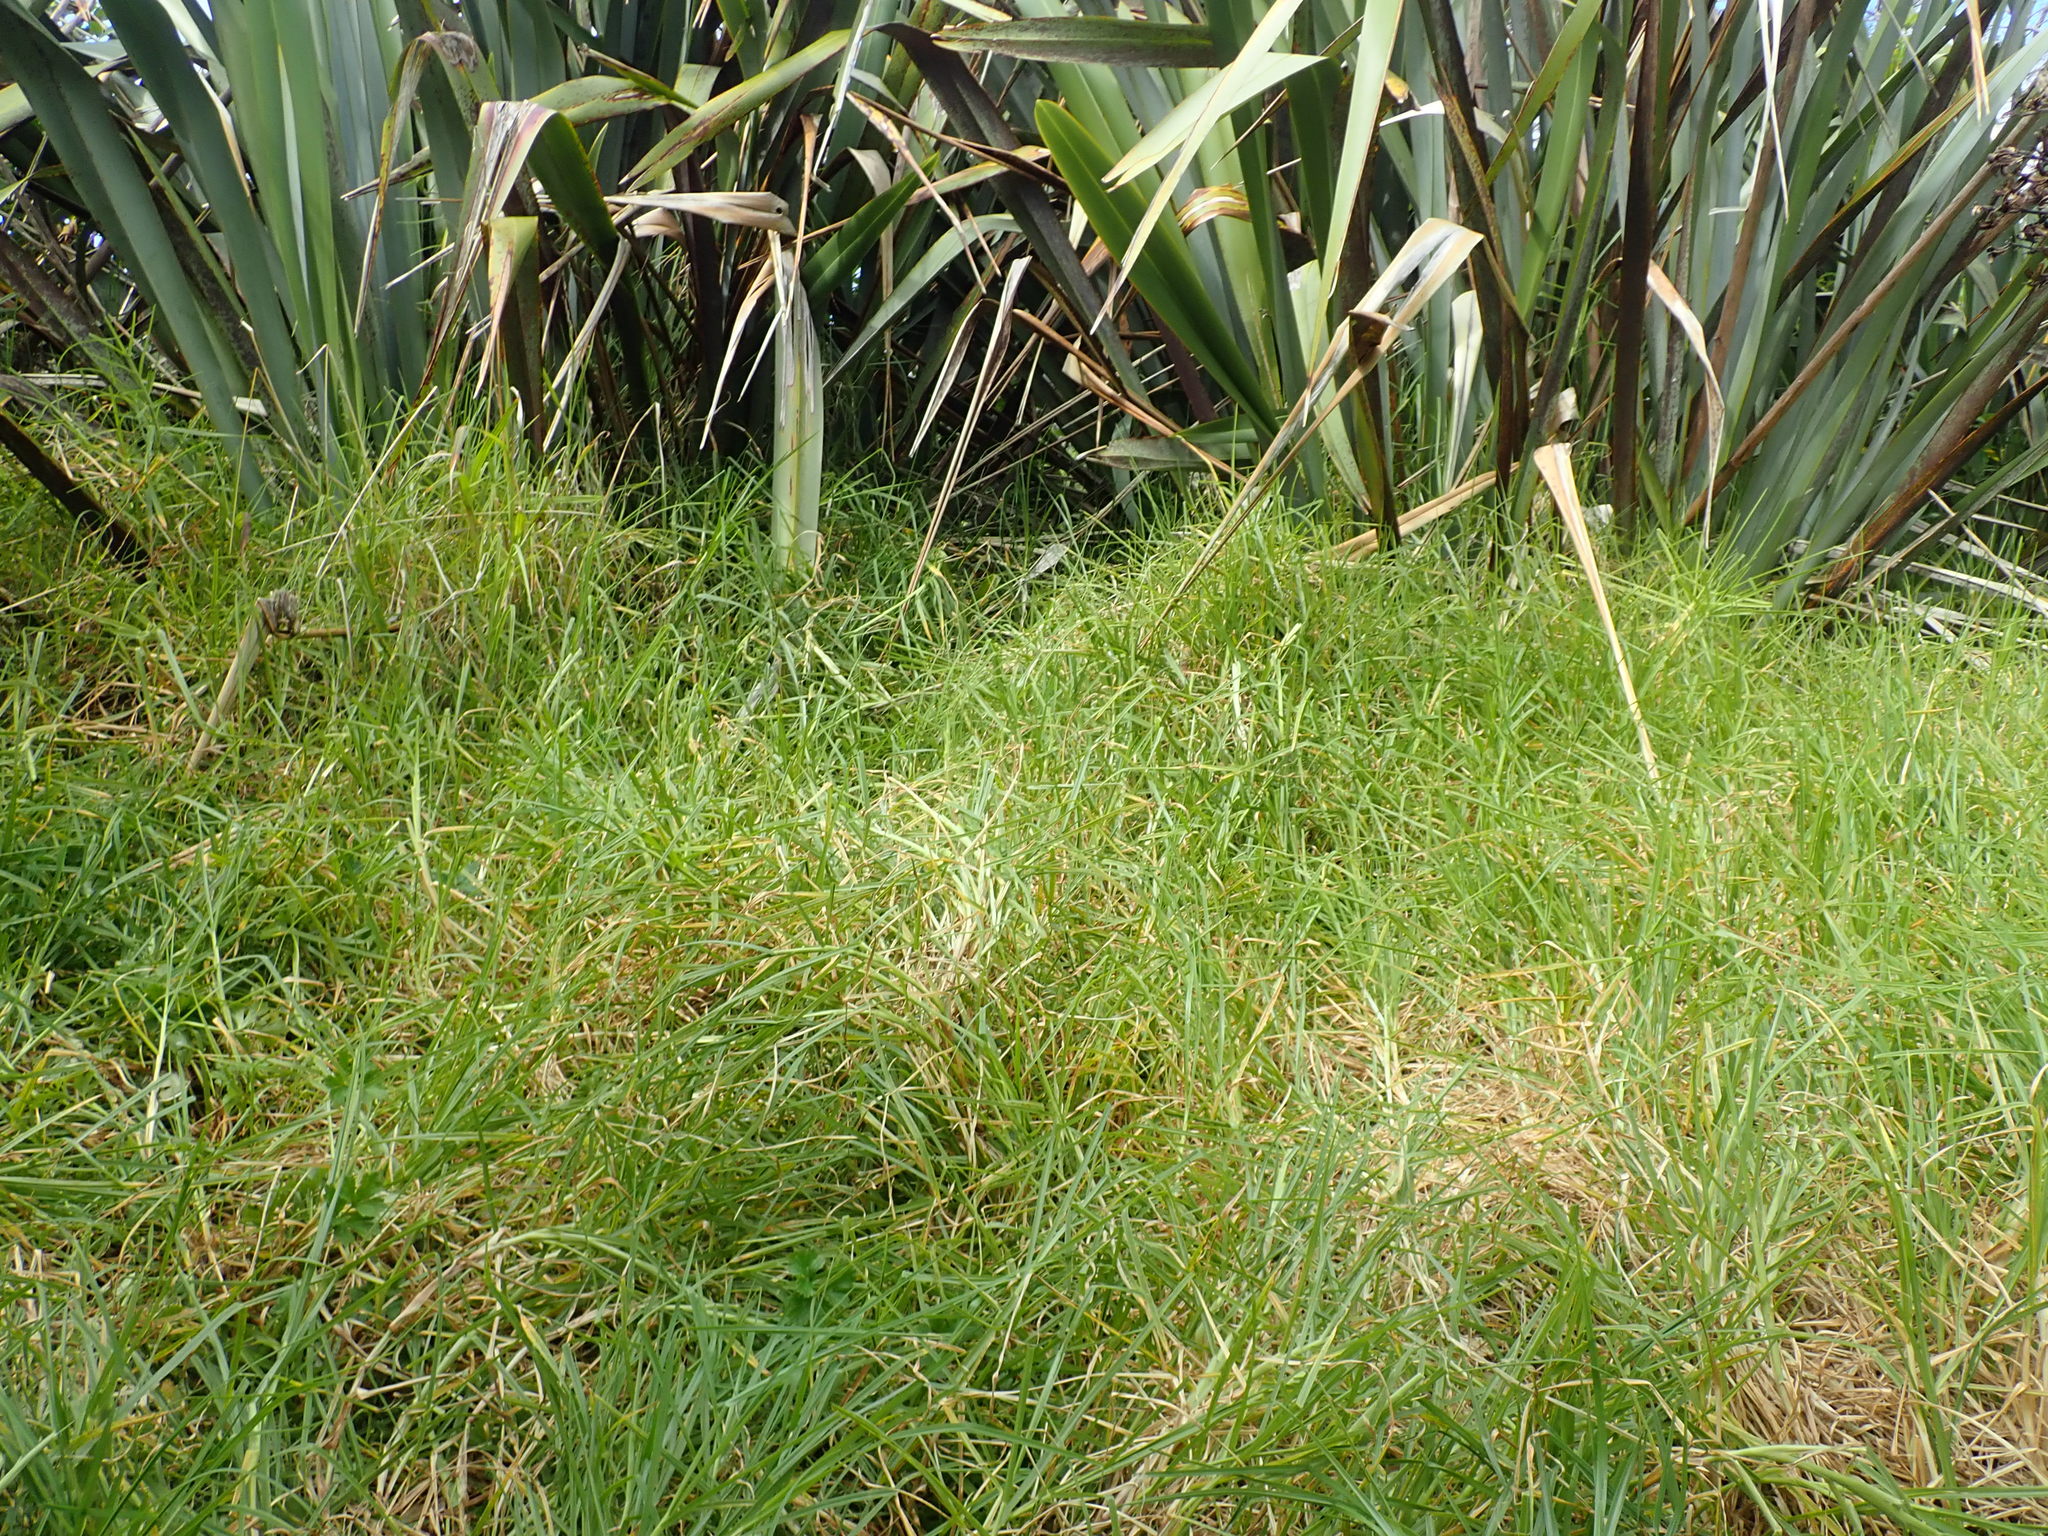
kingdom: Plantae
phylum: Tracheophyta
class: Liliopsida
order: Poales
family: Poaceae
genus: Cenchrus
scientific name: Cenchrus clandestinus
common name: Kikuyugrass
